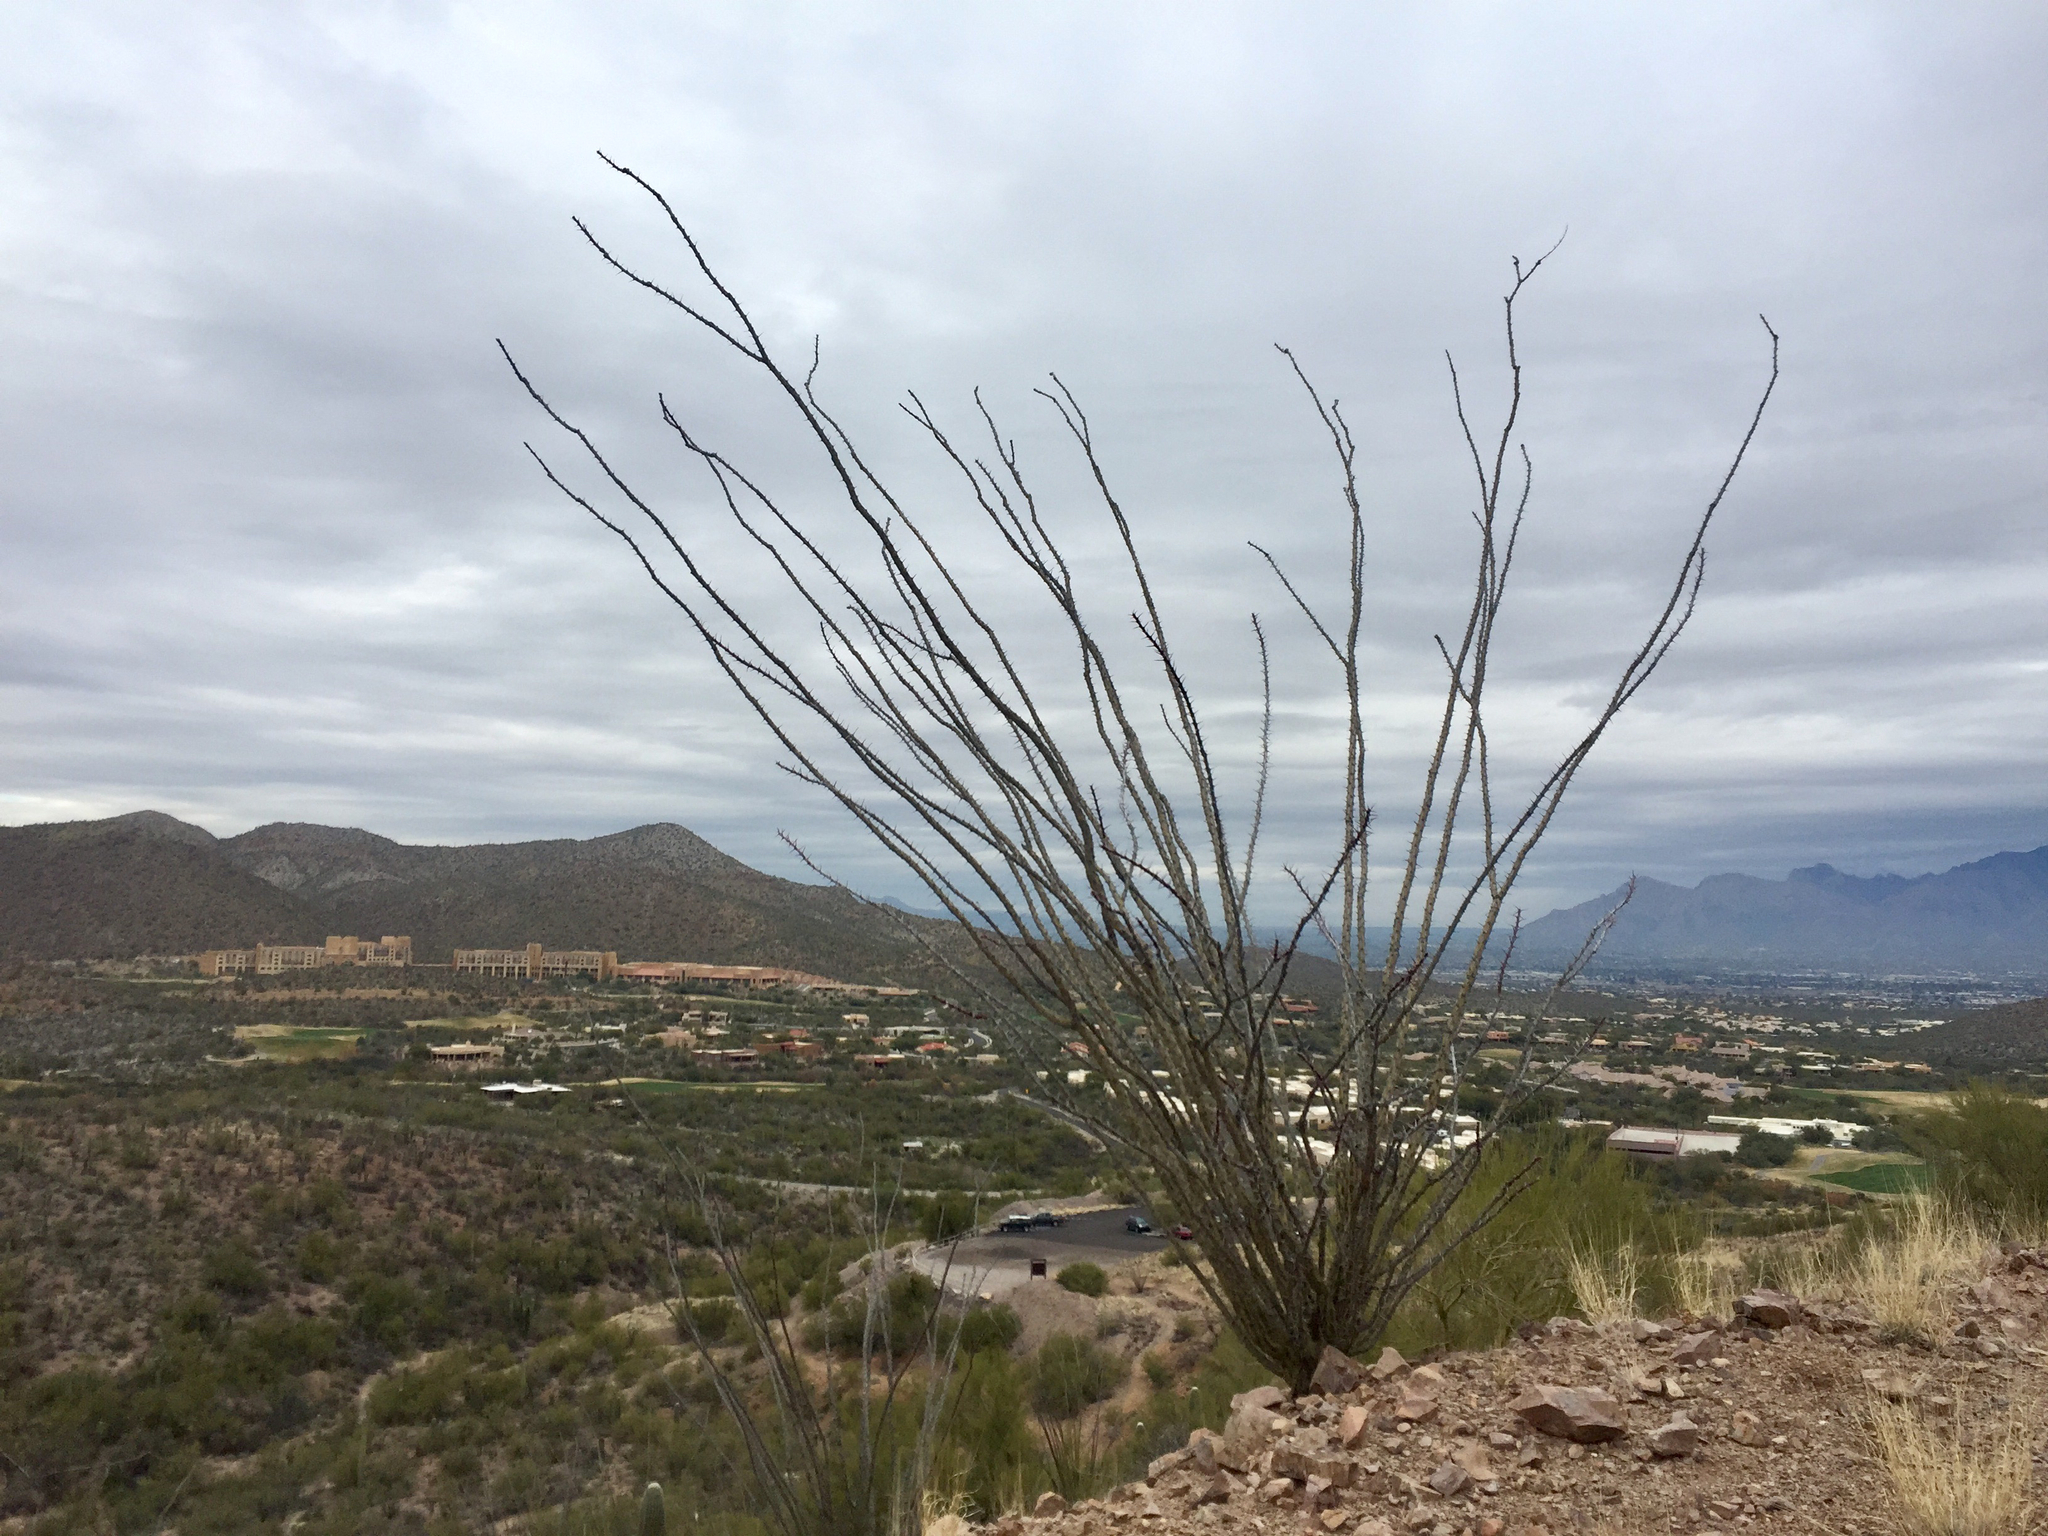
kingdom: Plantae
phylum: Tracheophyta
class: Magnoliopsida
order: Ericales
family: Fouquieriaceae
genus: Fouquieria
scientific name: Fouquieria splendens
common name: Vine-cactus
